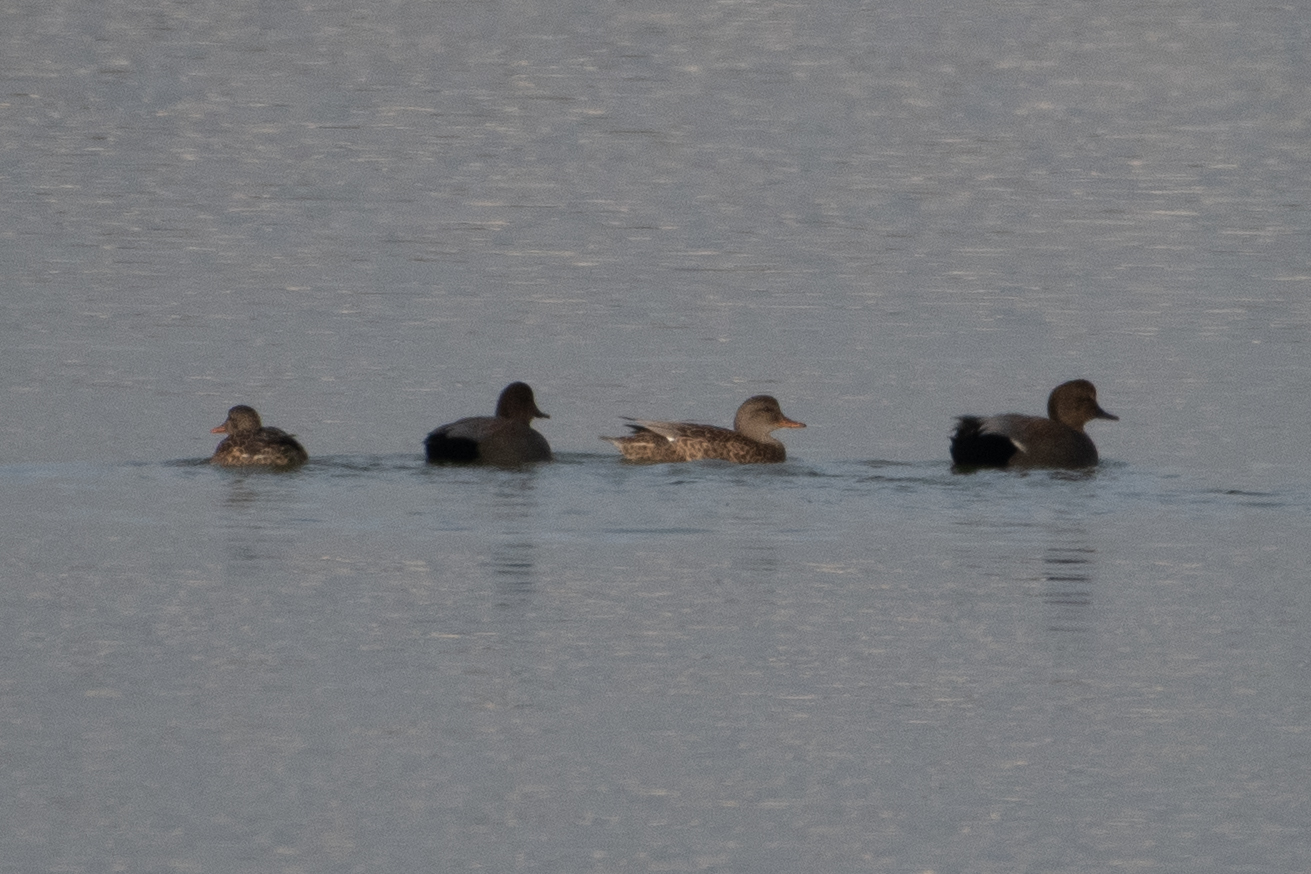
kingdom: Animalia
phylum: Chordata
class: Aves
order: Anseriformes
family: Anatidae
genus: Mareca
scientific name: Mareca strepera
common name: Gadwall
